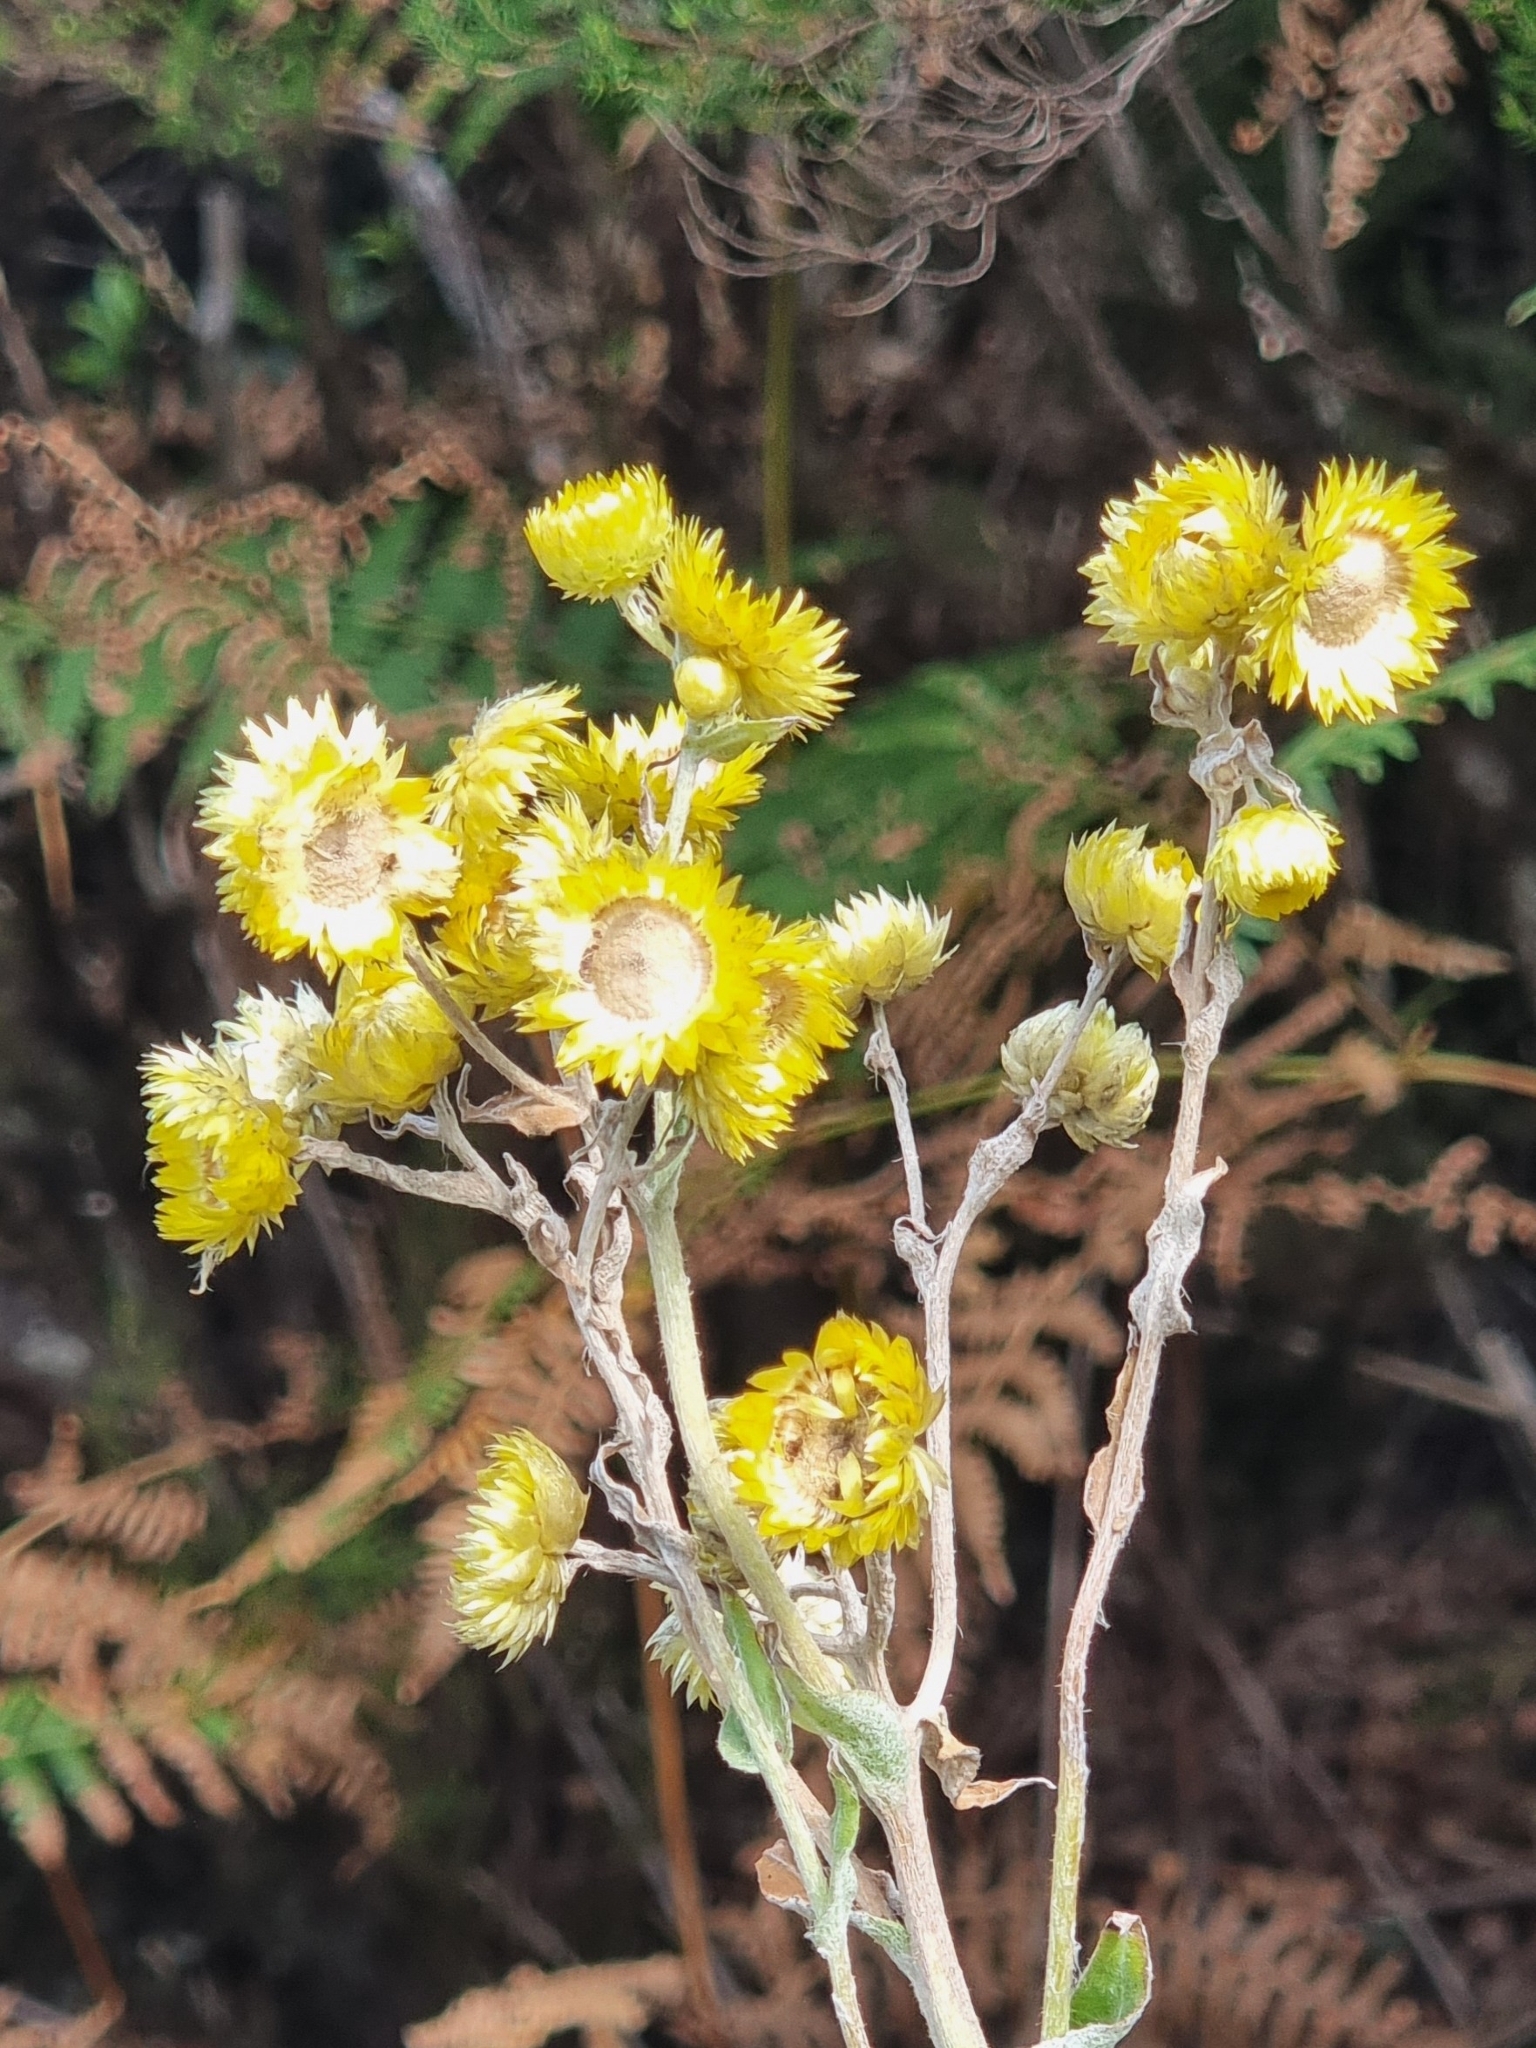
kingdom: Plantae
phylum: Tracheophyta
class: Magnoliopsida
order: Asterales
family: Asteraceae
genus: Helichrysum
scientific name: Helichrysum foetidum
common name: Stinking everlasting
